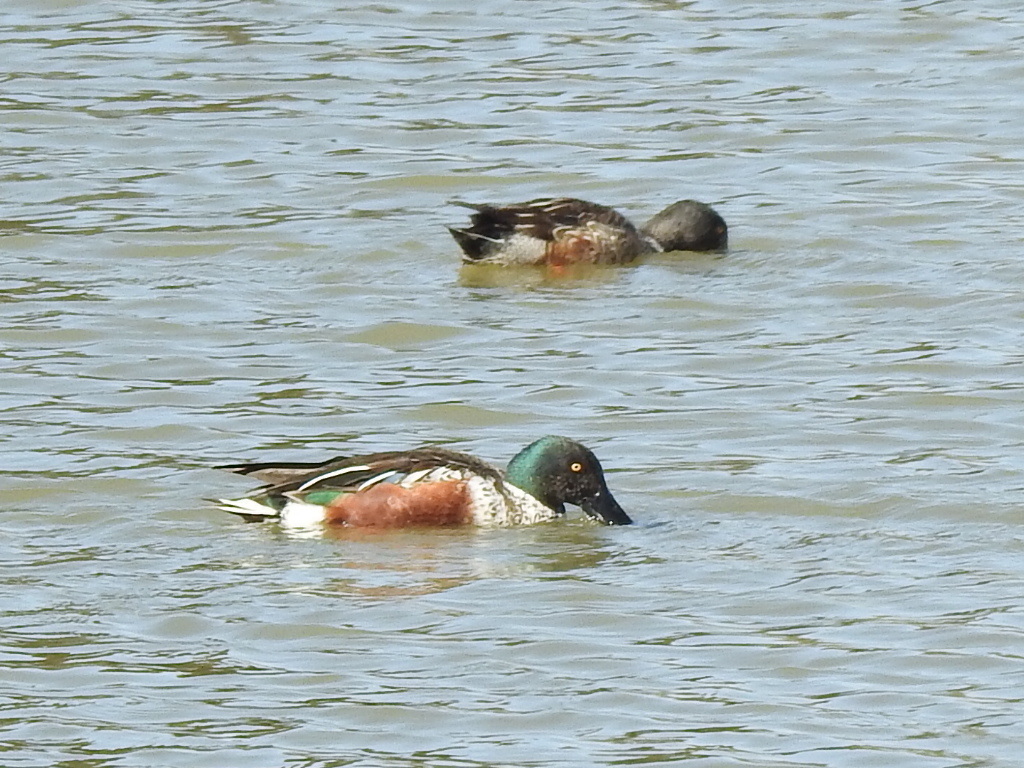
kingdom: Animalia
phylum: Chordata
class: Aves
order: Anseriformes
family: Anatidae
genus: Spatula
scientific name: Spatula clypeata
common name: Northern shoveler
